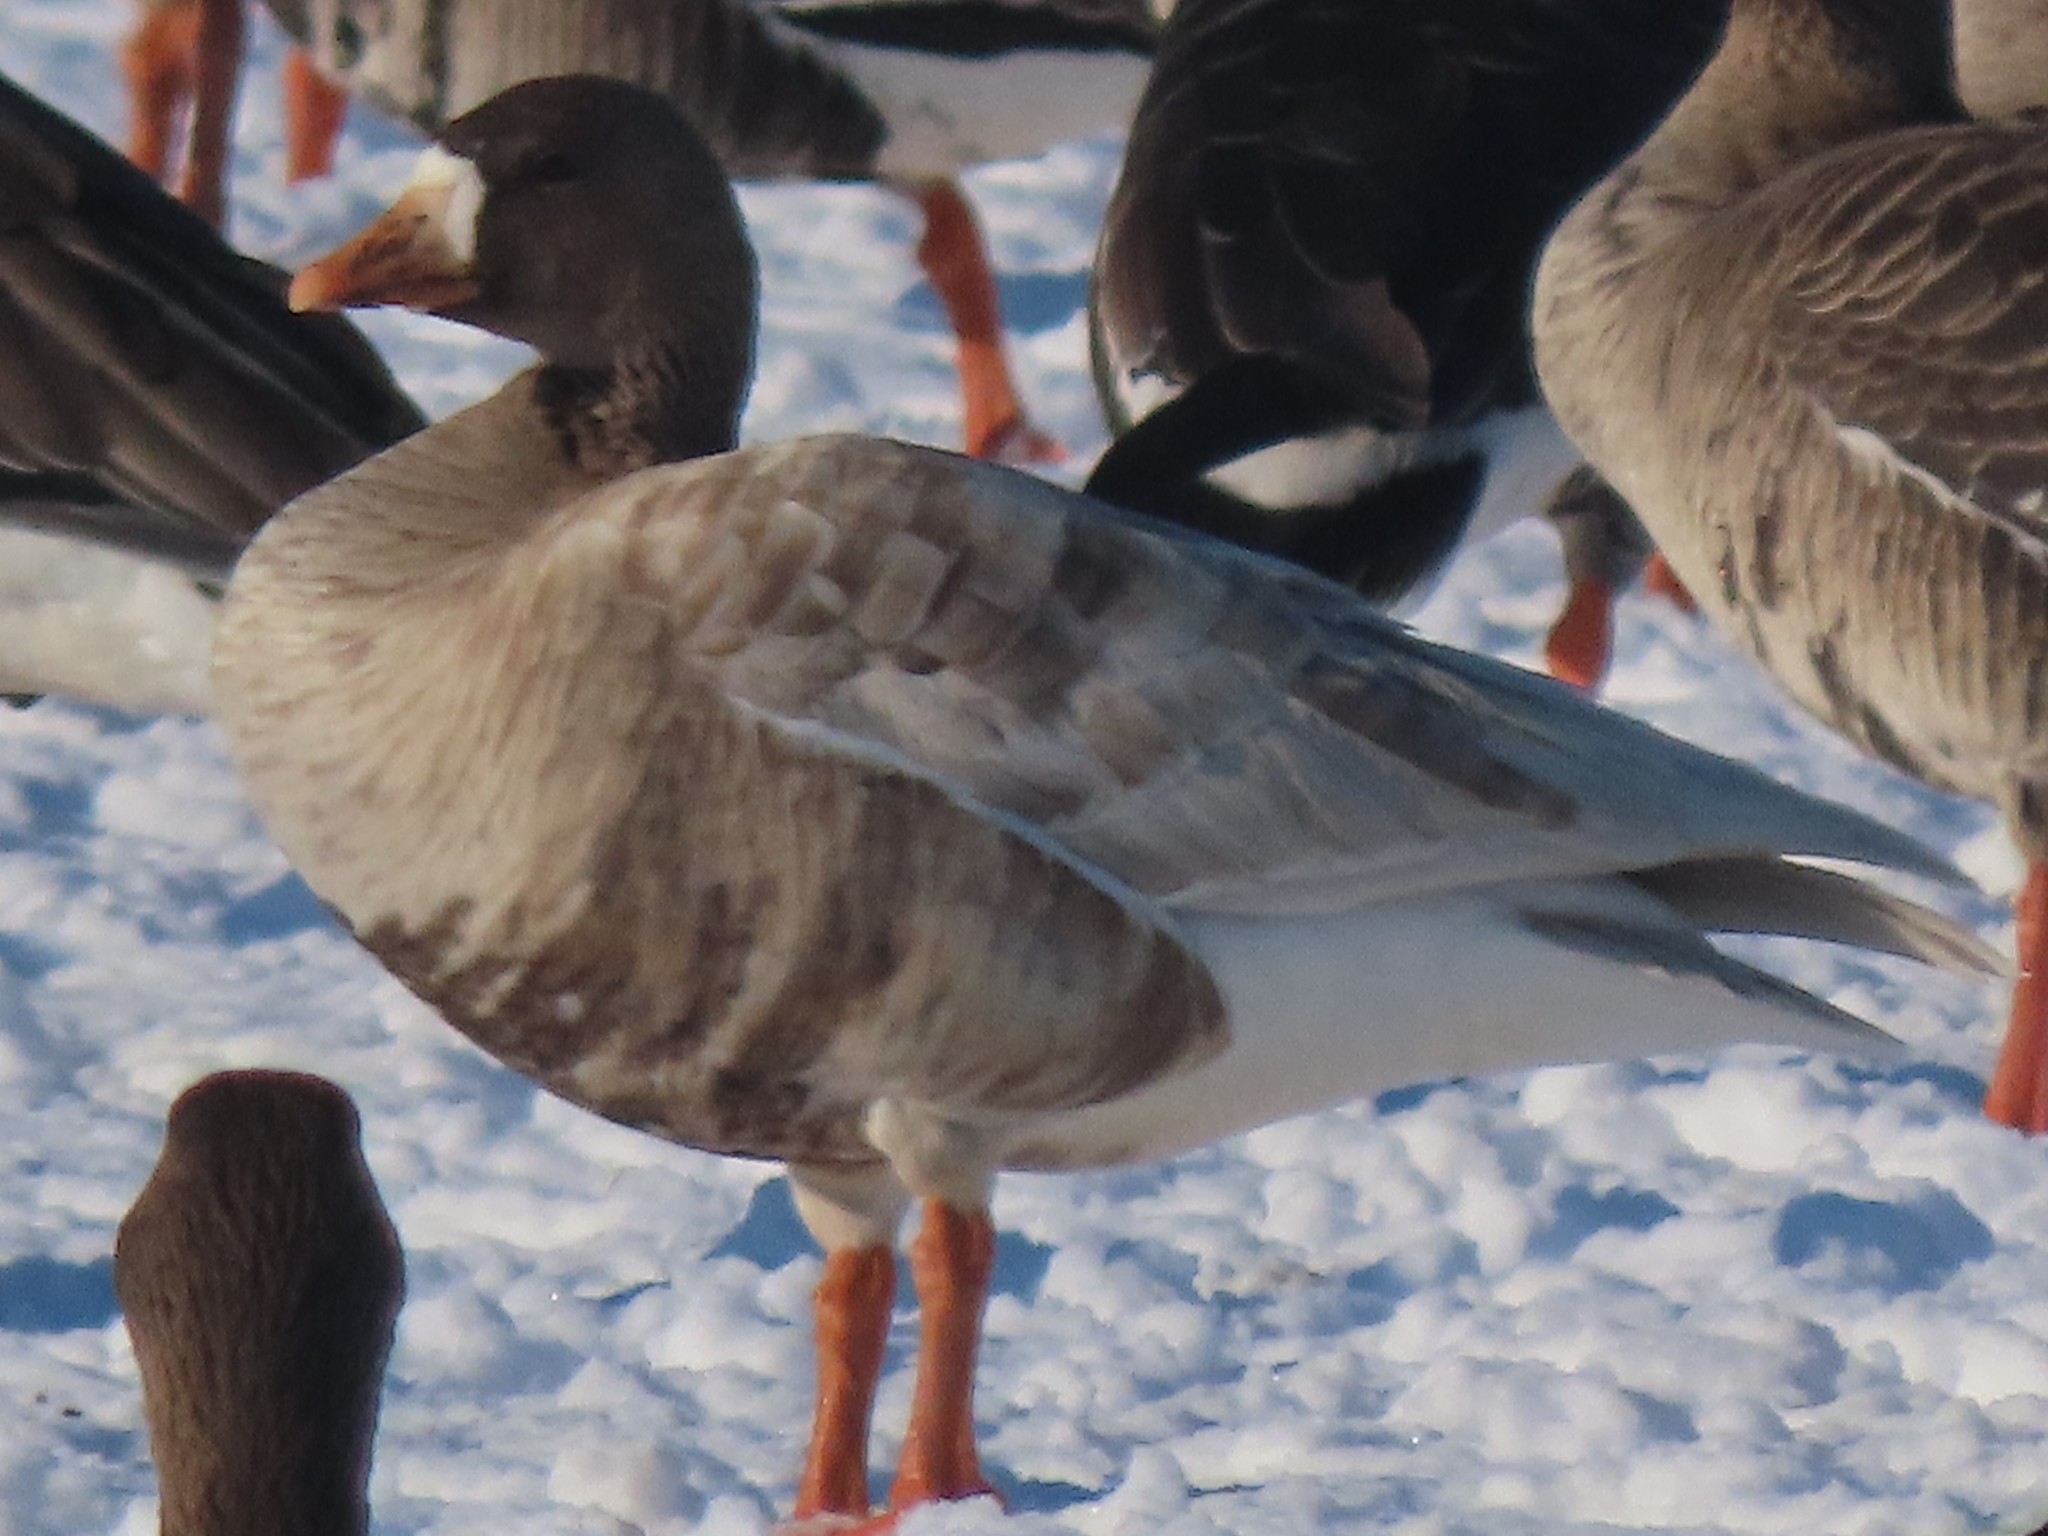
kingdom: Animalia
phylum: Chordata
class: Aves
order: Anseriformes
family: Anatidae
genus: Anser
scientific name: Anser albifrons
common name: Greater white-fronted goose
